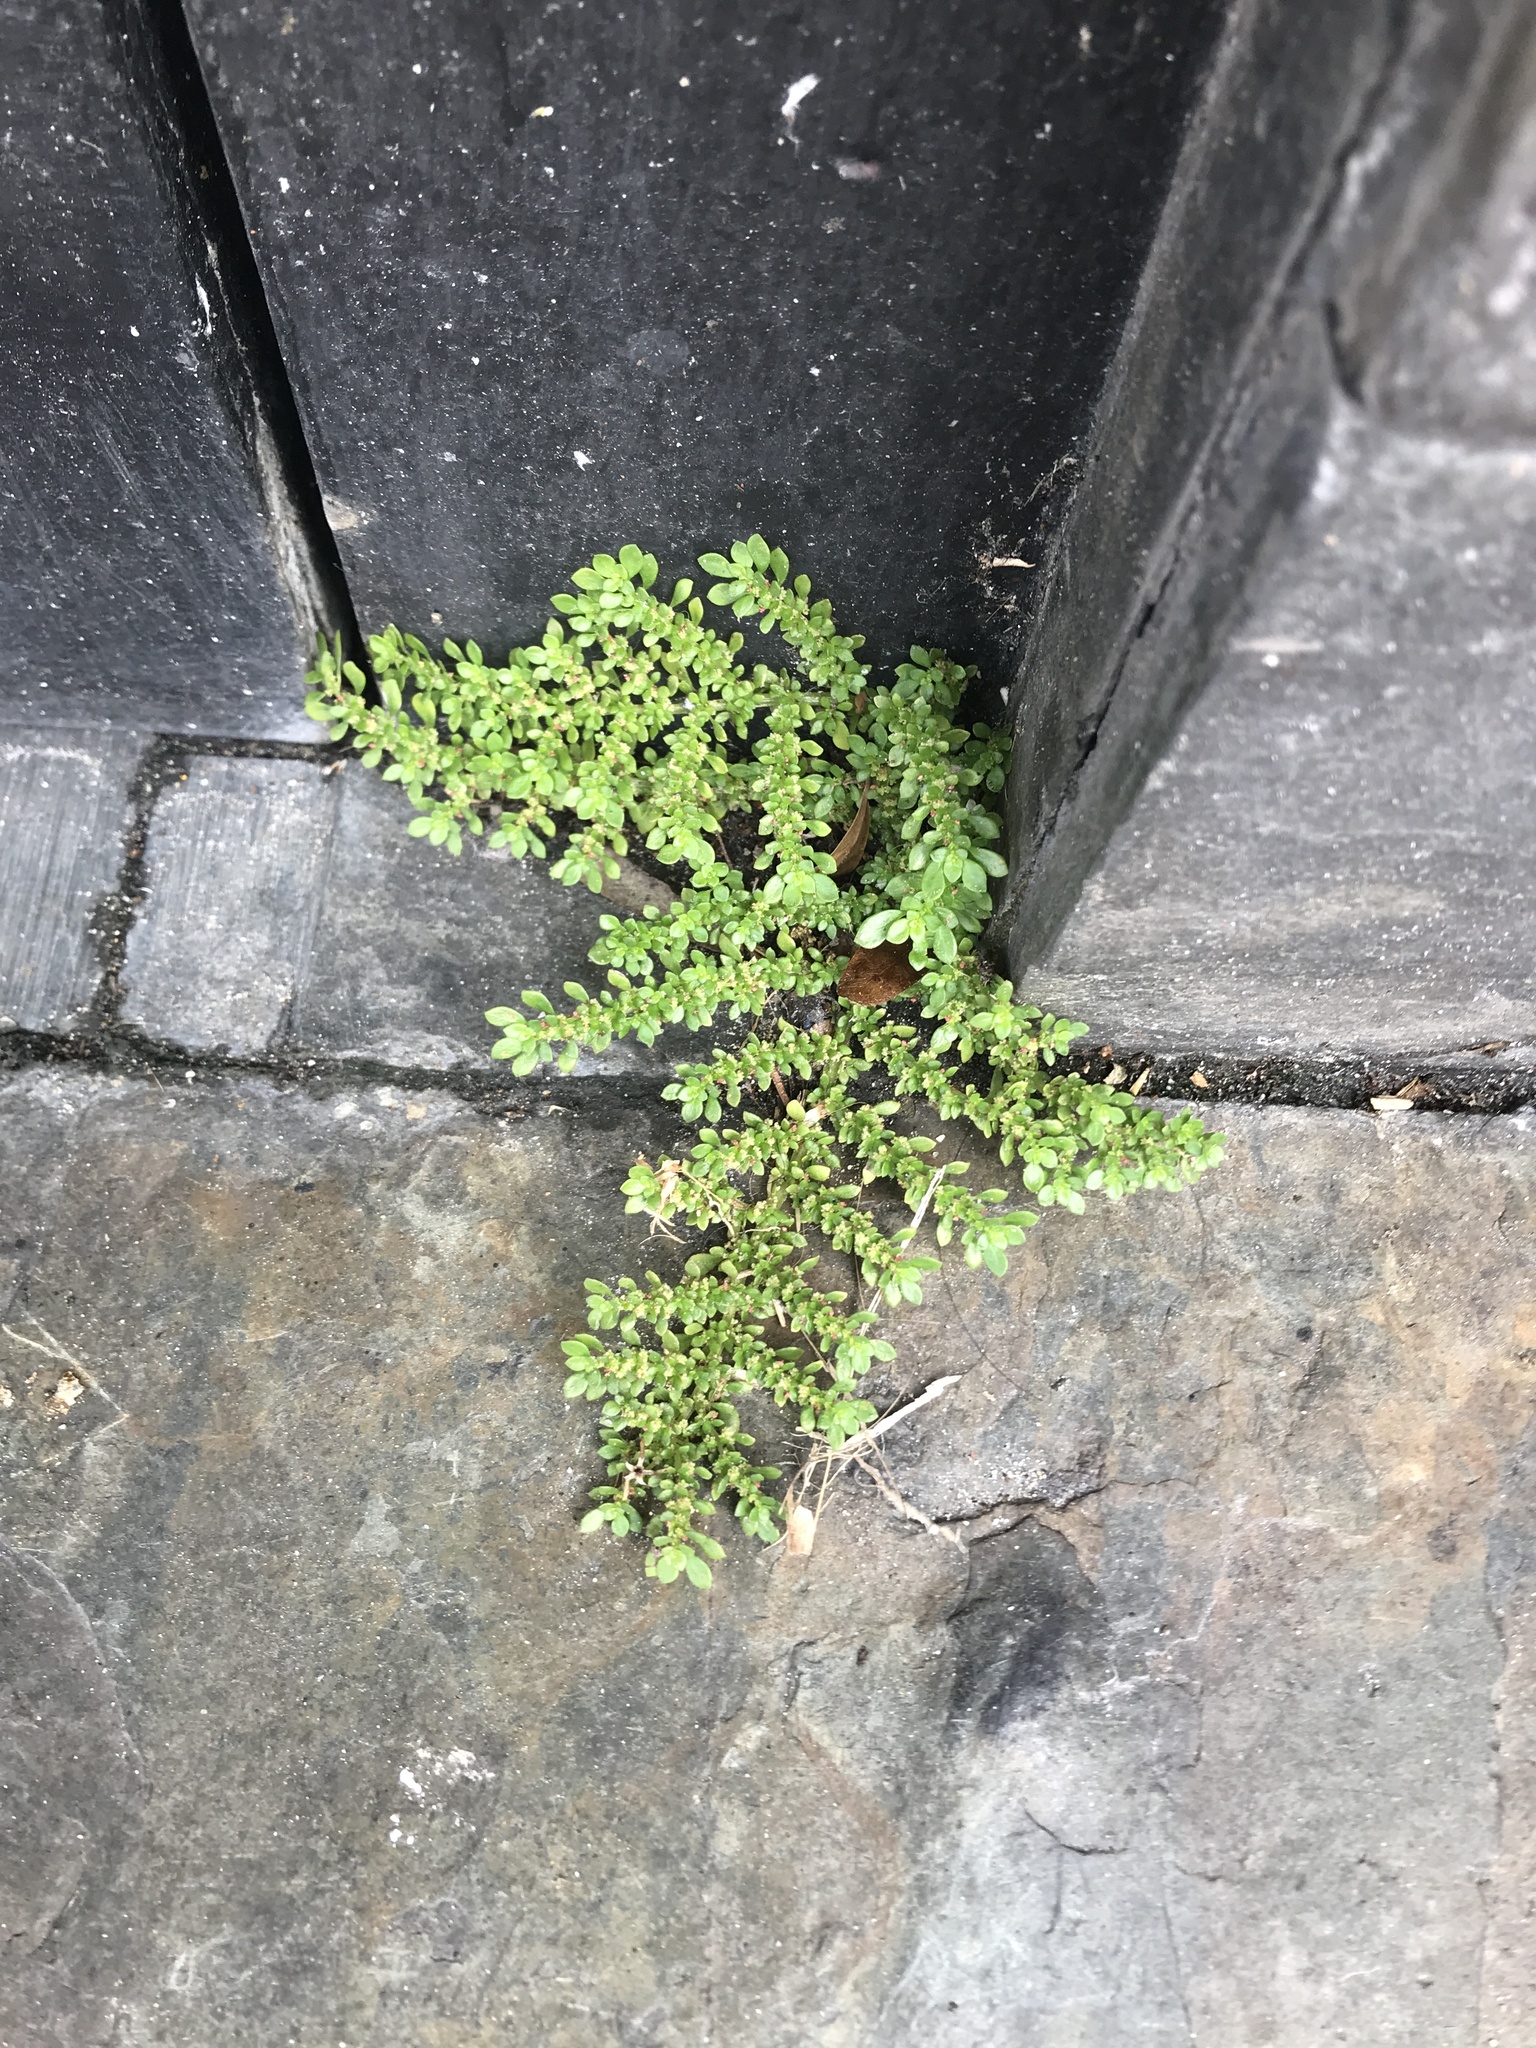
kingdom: Plantae
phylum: Tracheophyta
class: Magnoliopsida
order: Rosales
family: Urticaceae
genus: Pilea
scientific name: Pilea microphylla
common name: Artillery-plant
